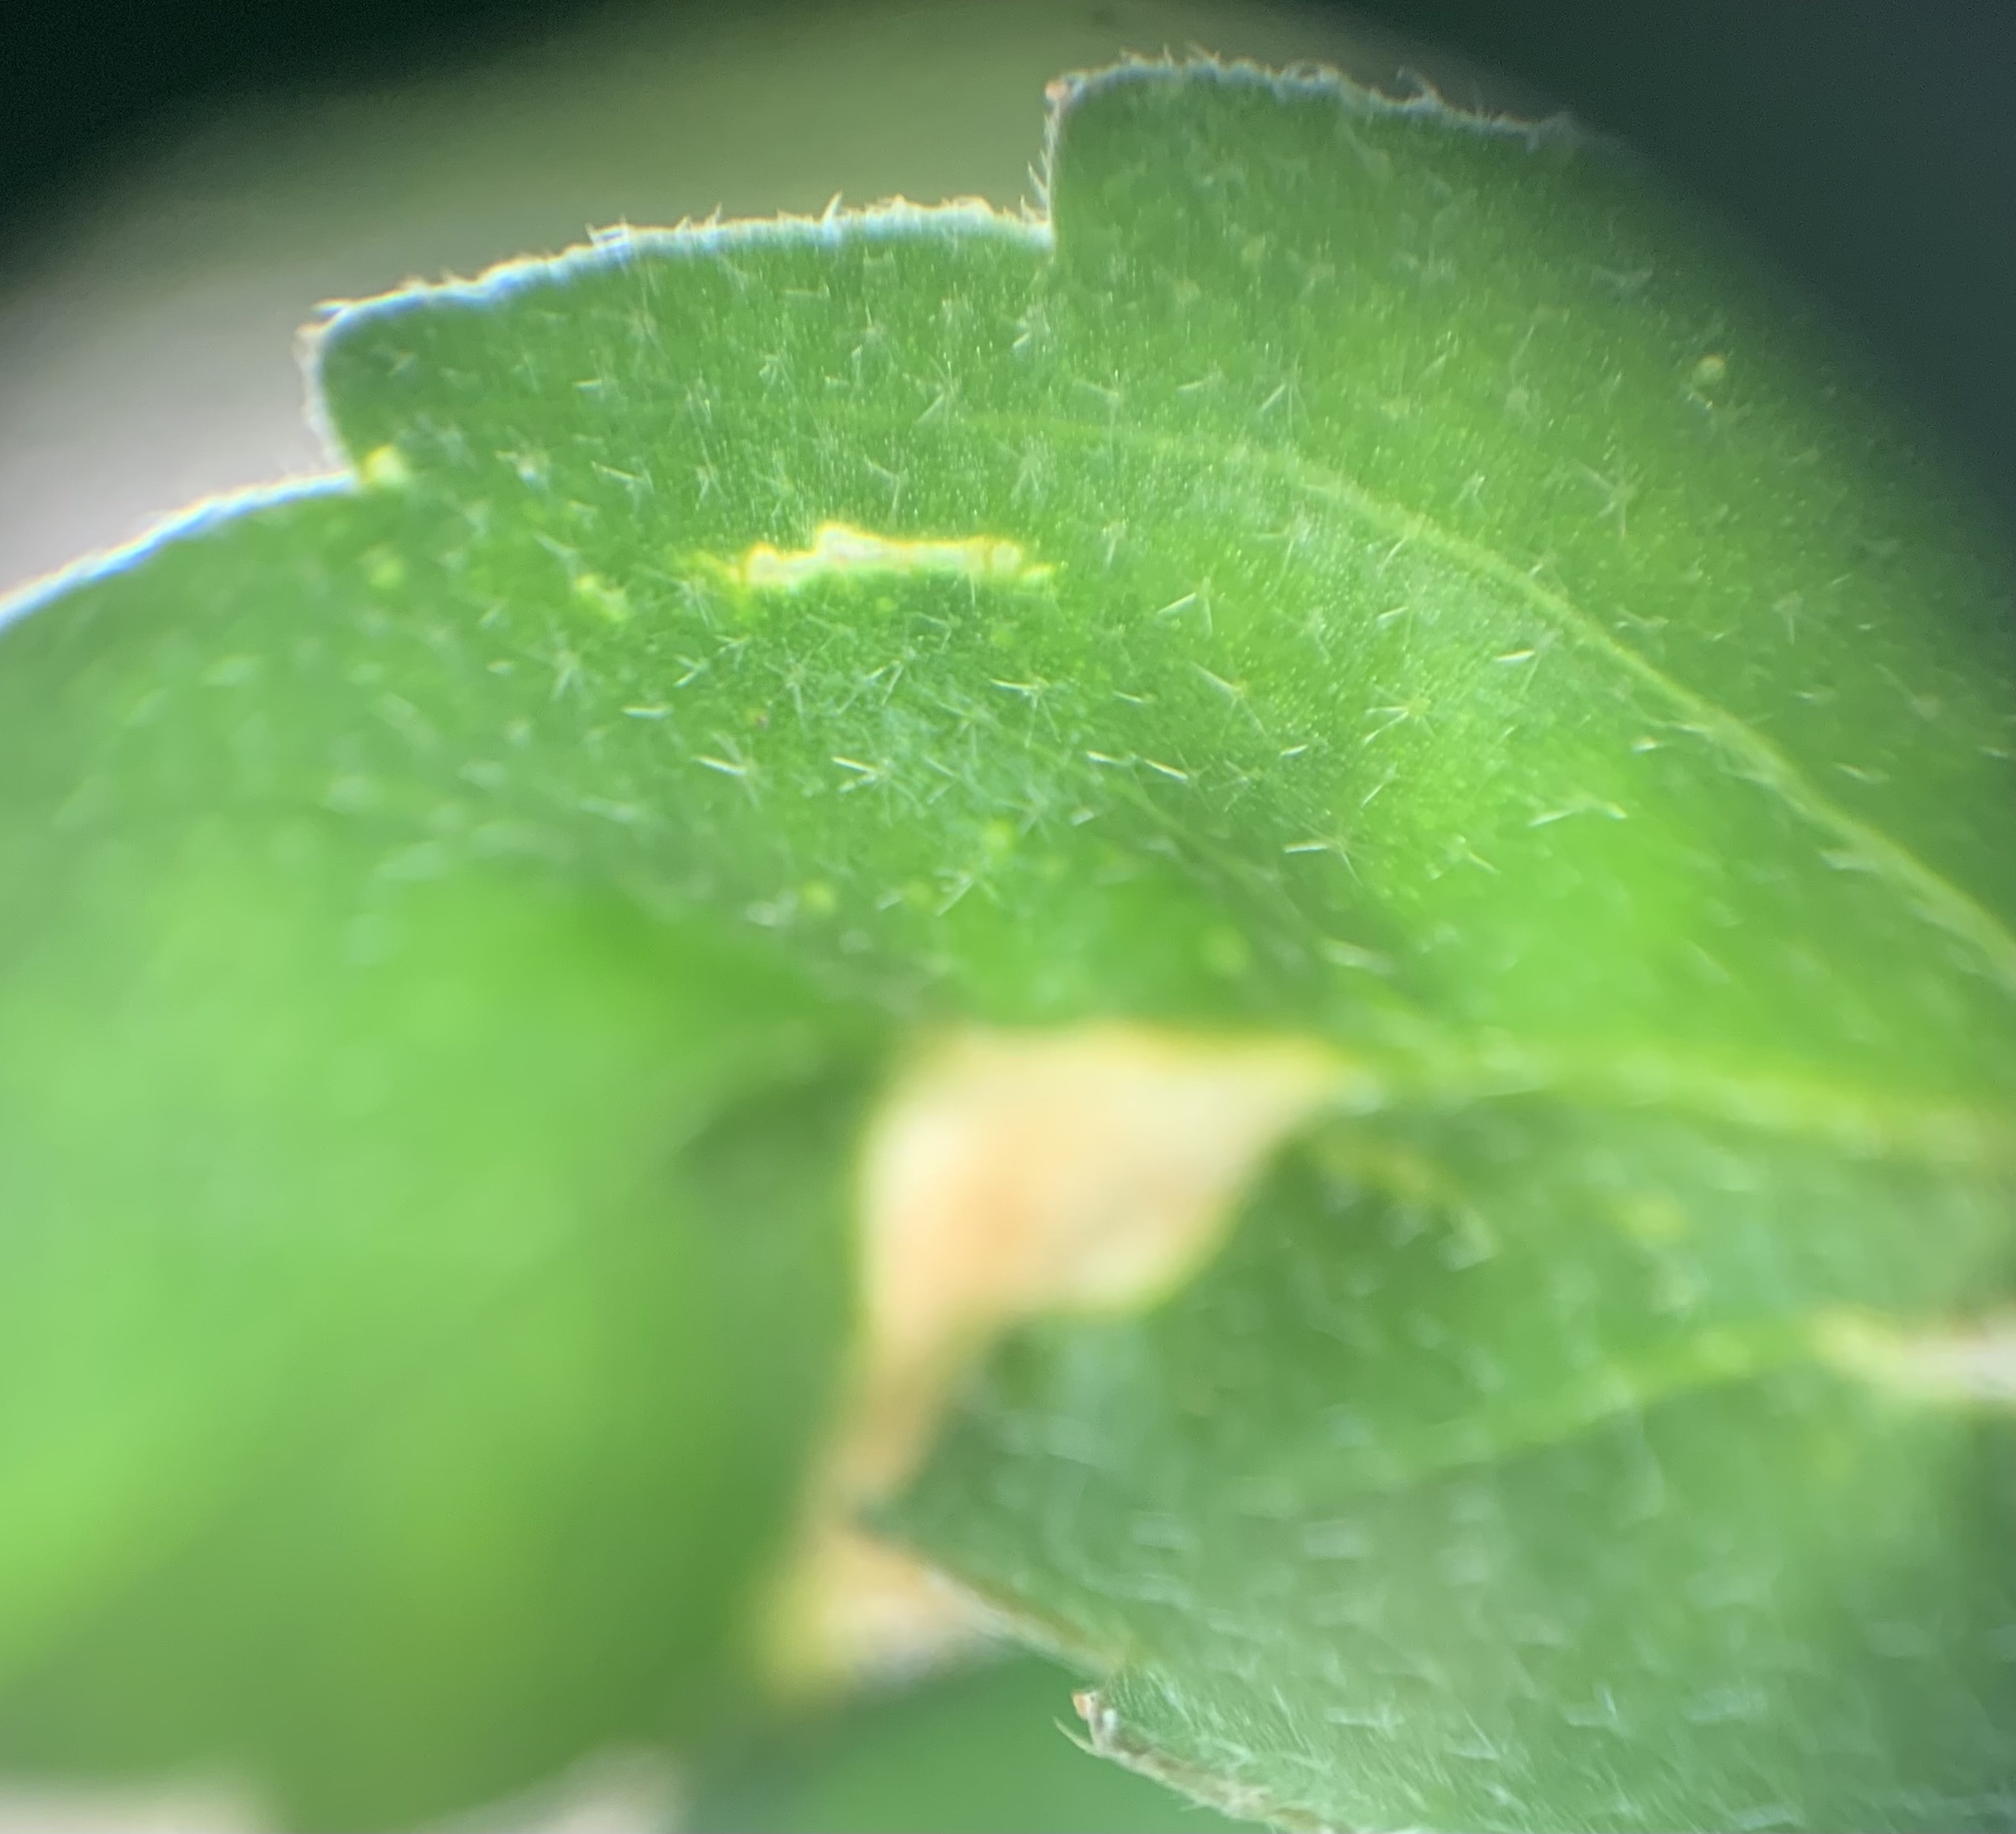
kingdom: Plantae
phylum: Tracheophyta
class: Magnoliopsida
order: Malpighiales
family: Euphorbiaceae
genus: Croton
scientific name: Croton glandulosus
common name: Tropic croton
